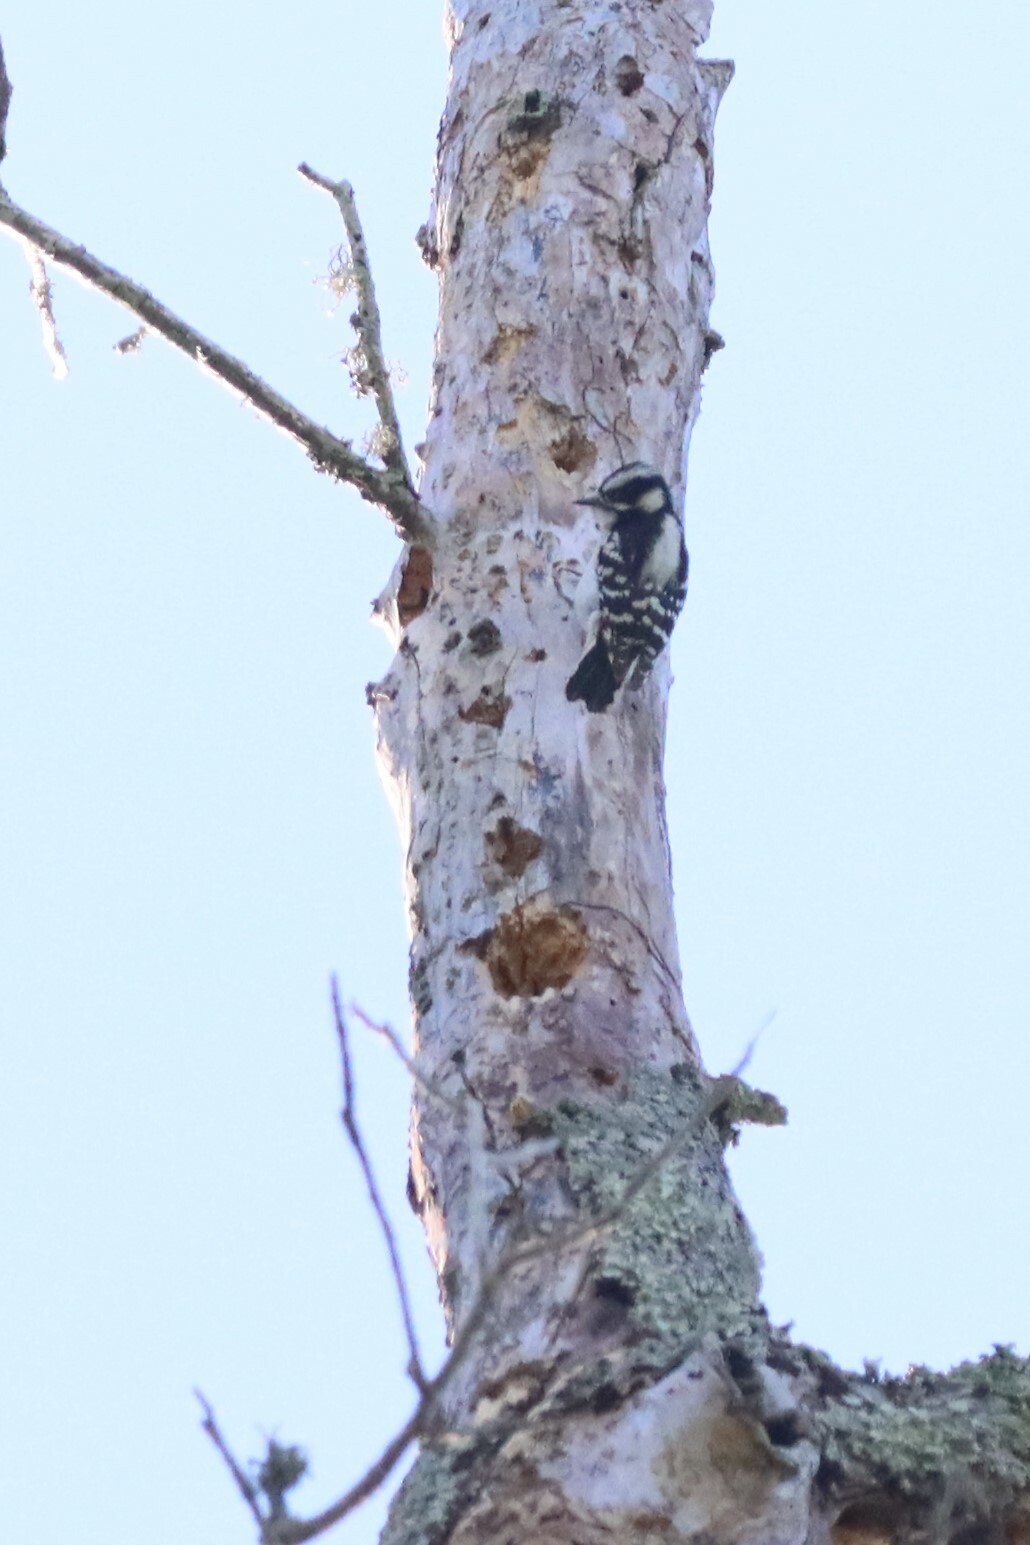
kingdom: Animalia
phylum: Chordata
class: Aves
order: Piciformes
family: Picidae
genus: Dryobates
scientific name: Dryobates pubescens
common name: Downy woodpecker
